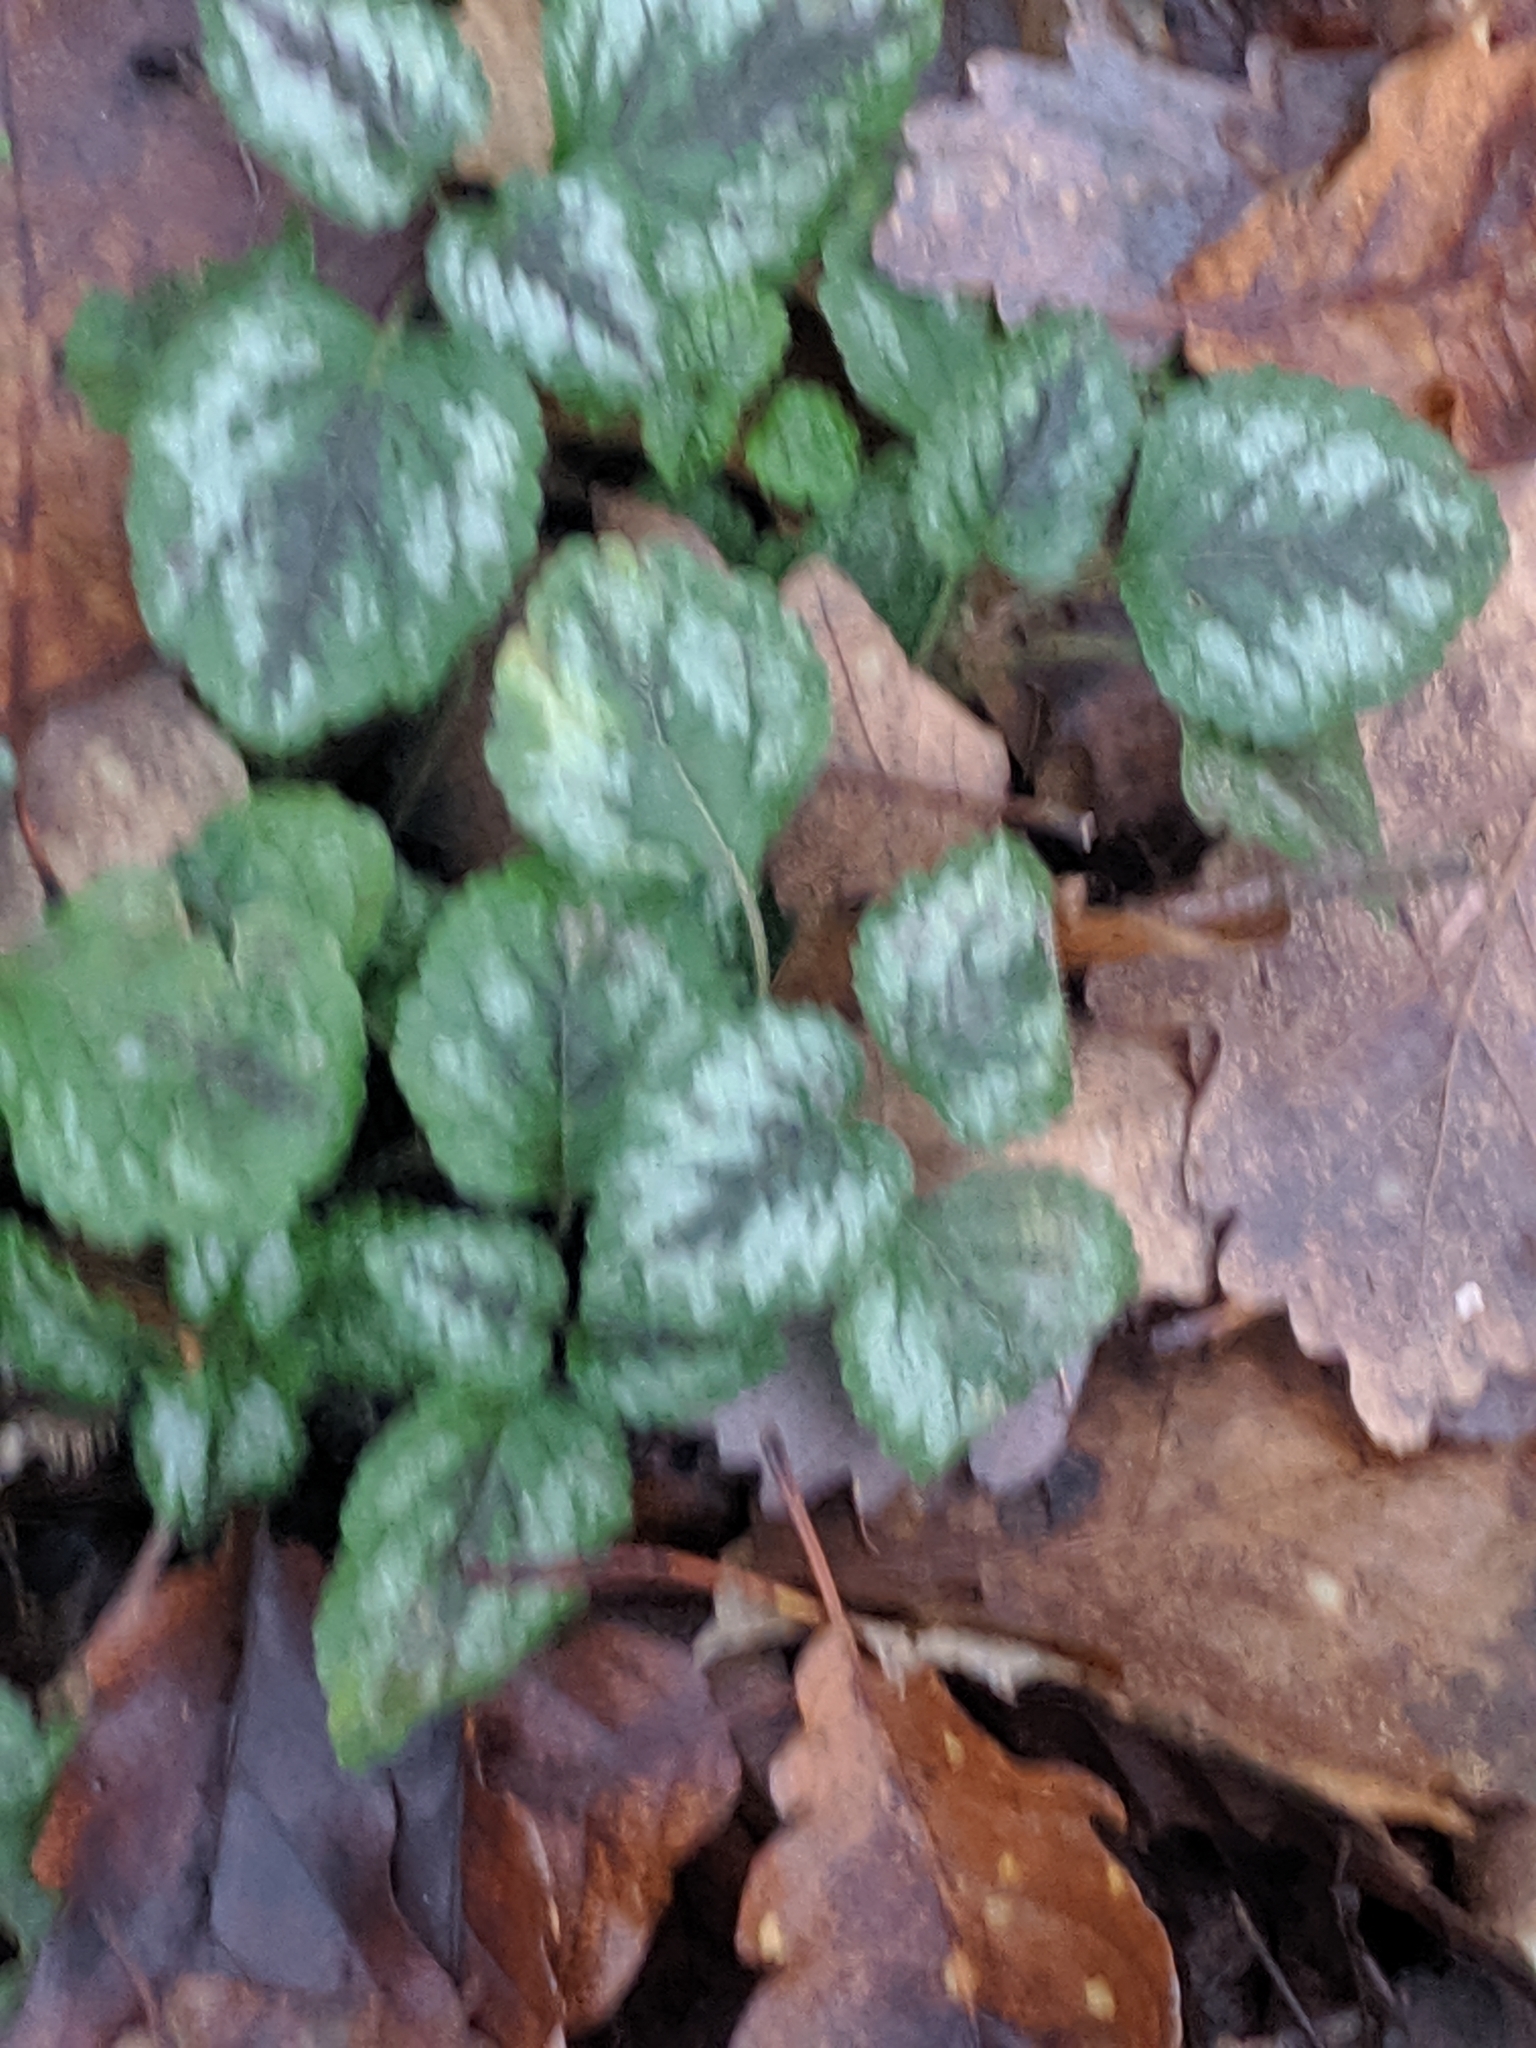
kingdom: Plantae
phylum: Tracheophyta
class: Magnoliopsida
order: Lamiales
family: Lamiaceae
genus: Lamium
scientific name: Lamium galeobdolon
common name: Yellow archangel
